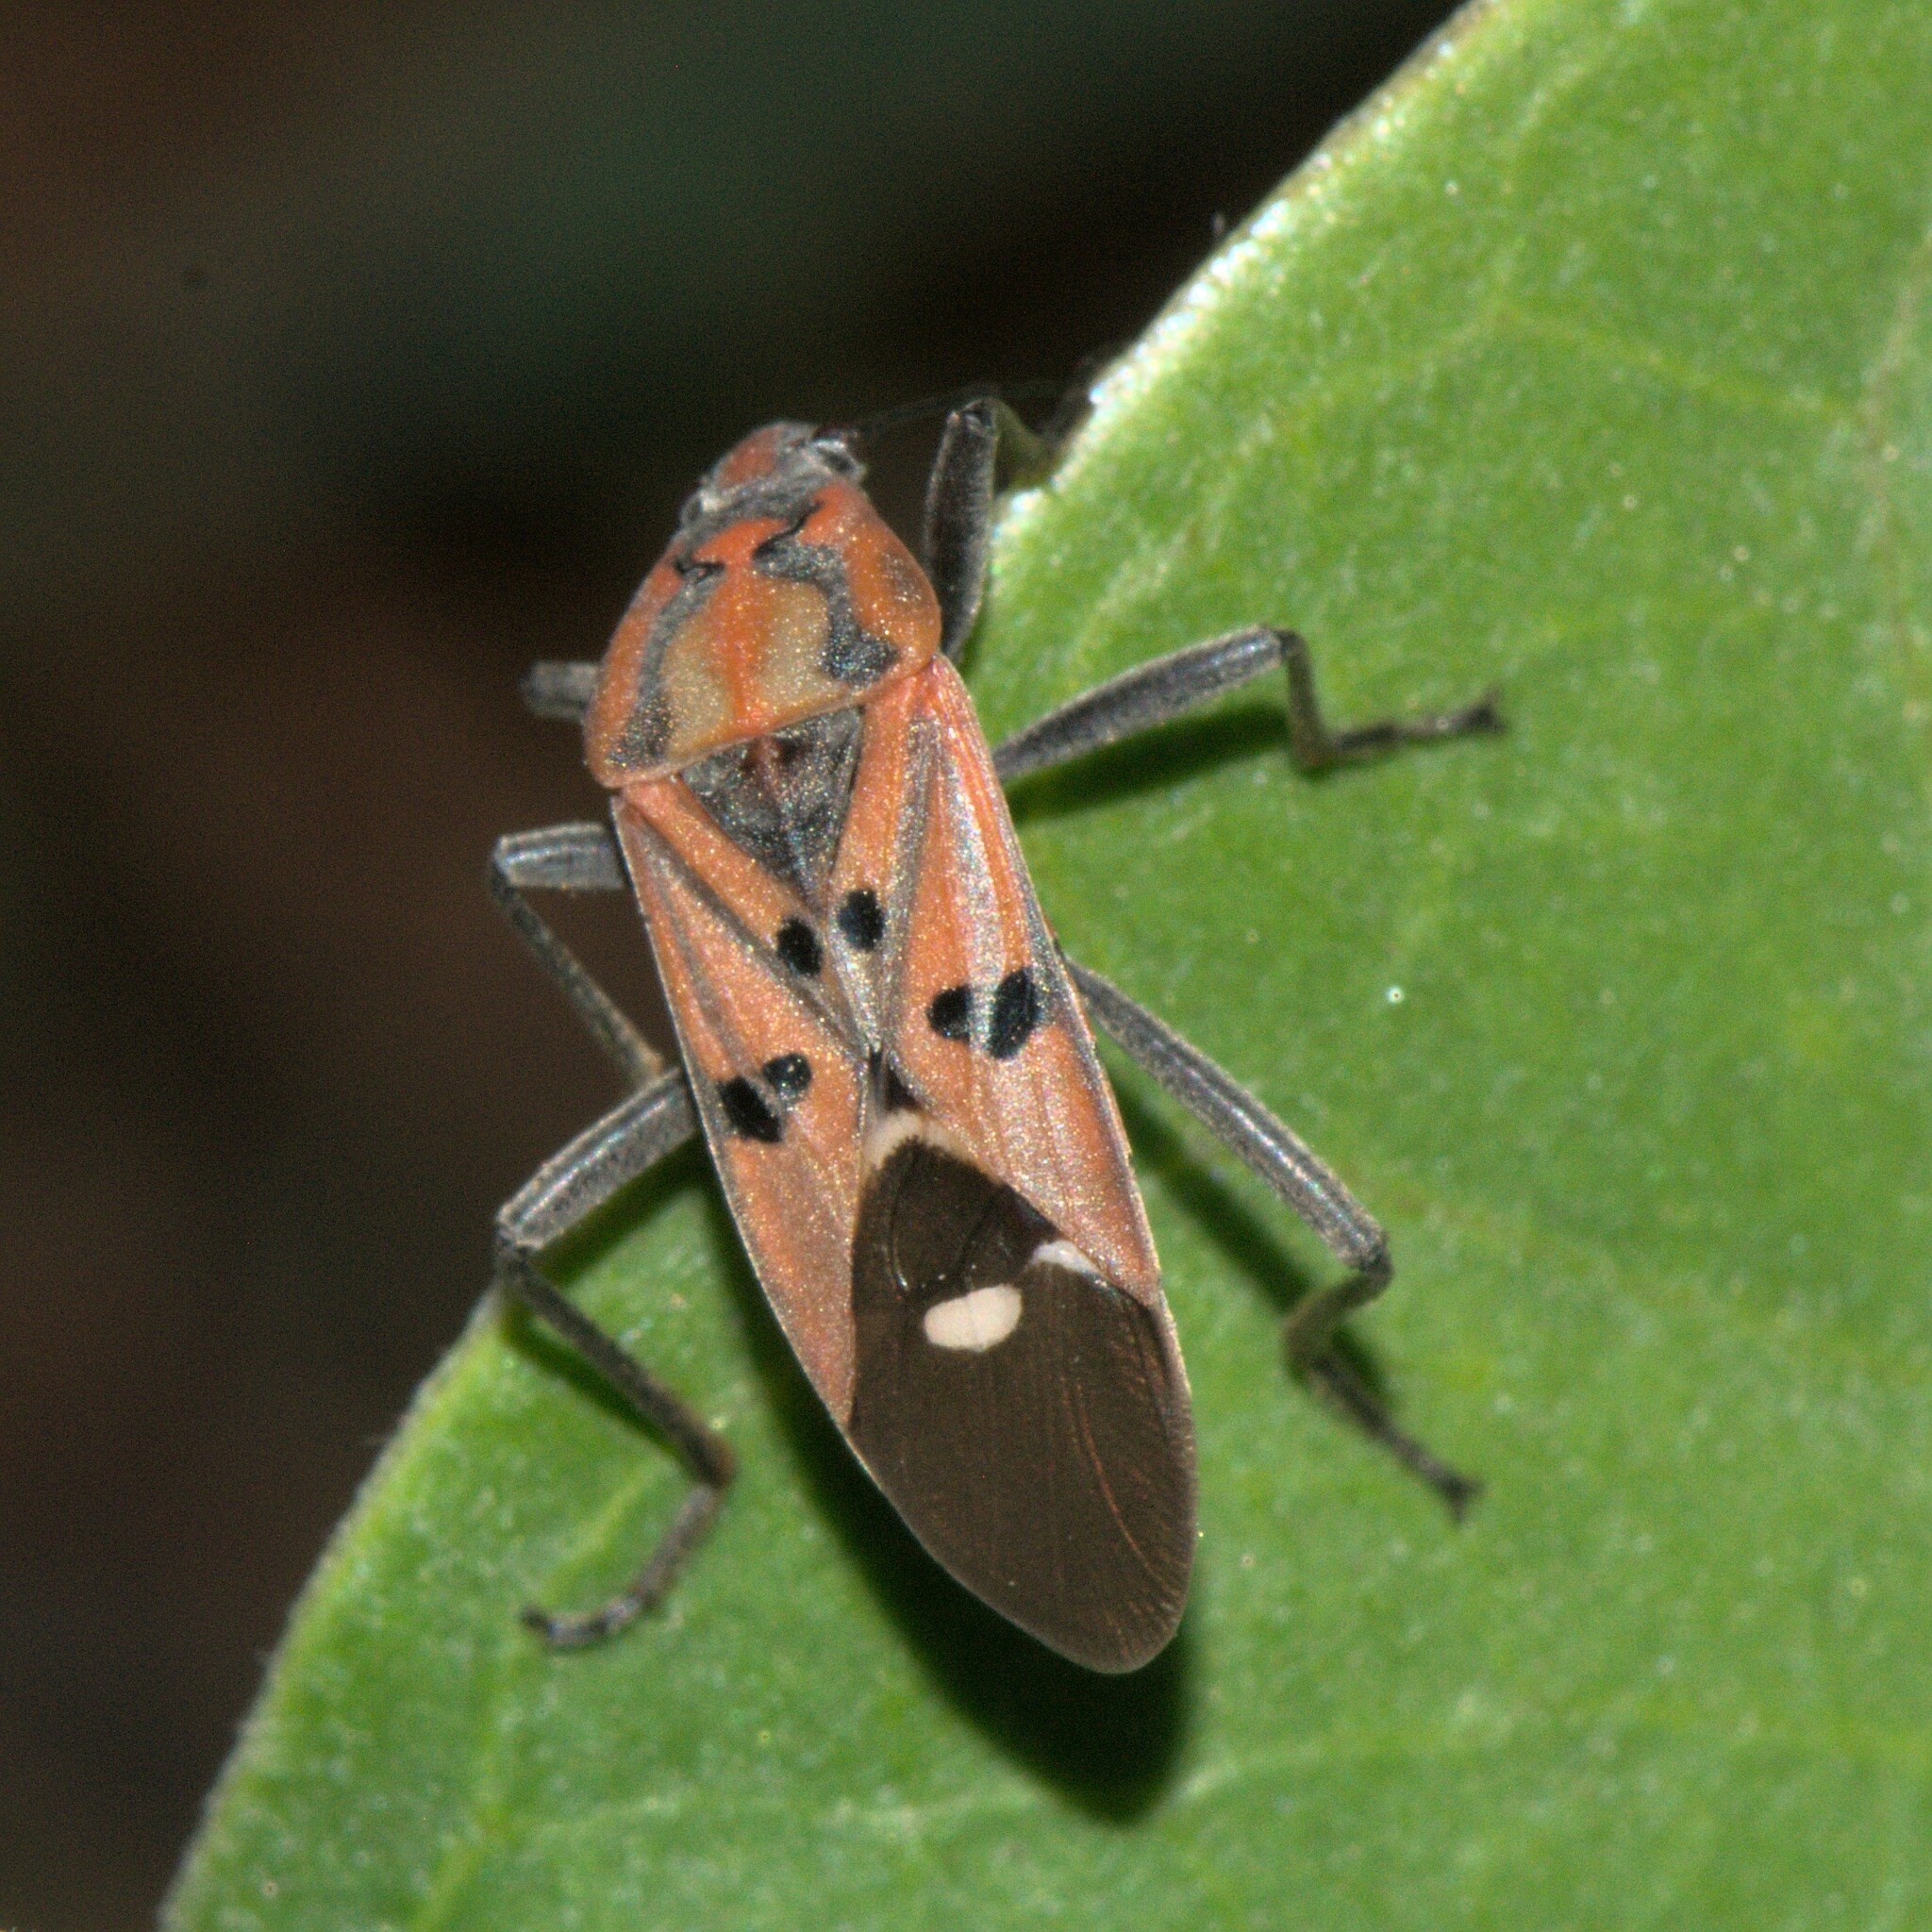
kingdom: Animalia
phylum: Arthropoda
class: Insecta
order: Hemiptera
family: Lygaeidae
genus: Spilostethus
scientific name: Spilostethus pandurus
